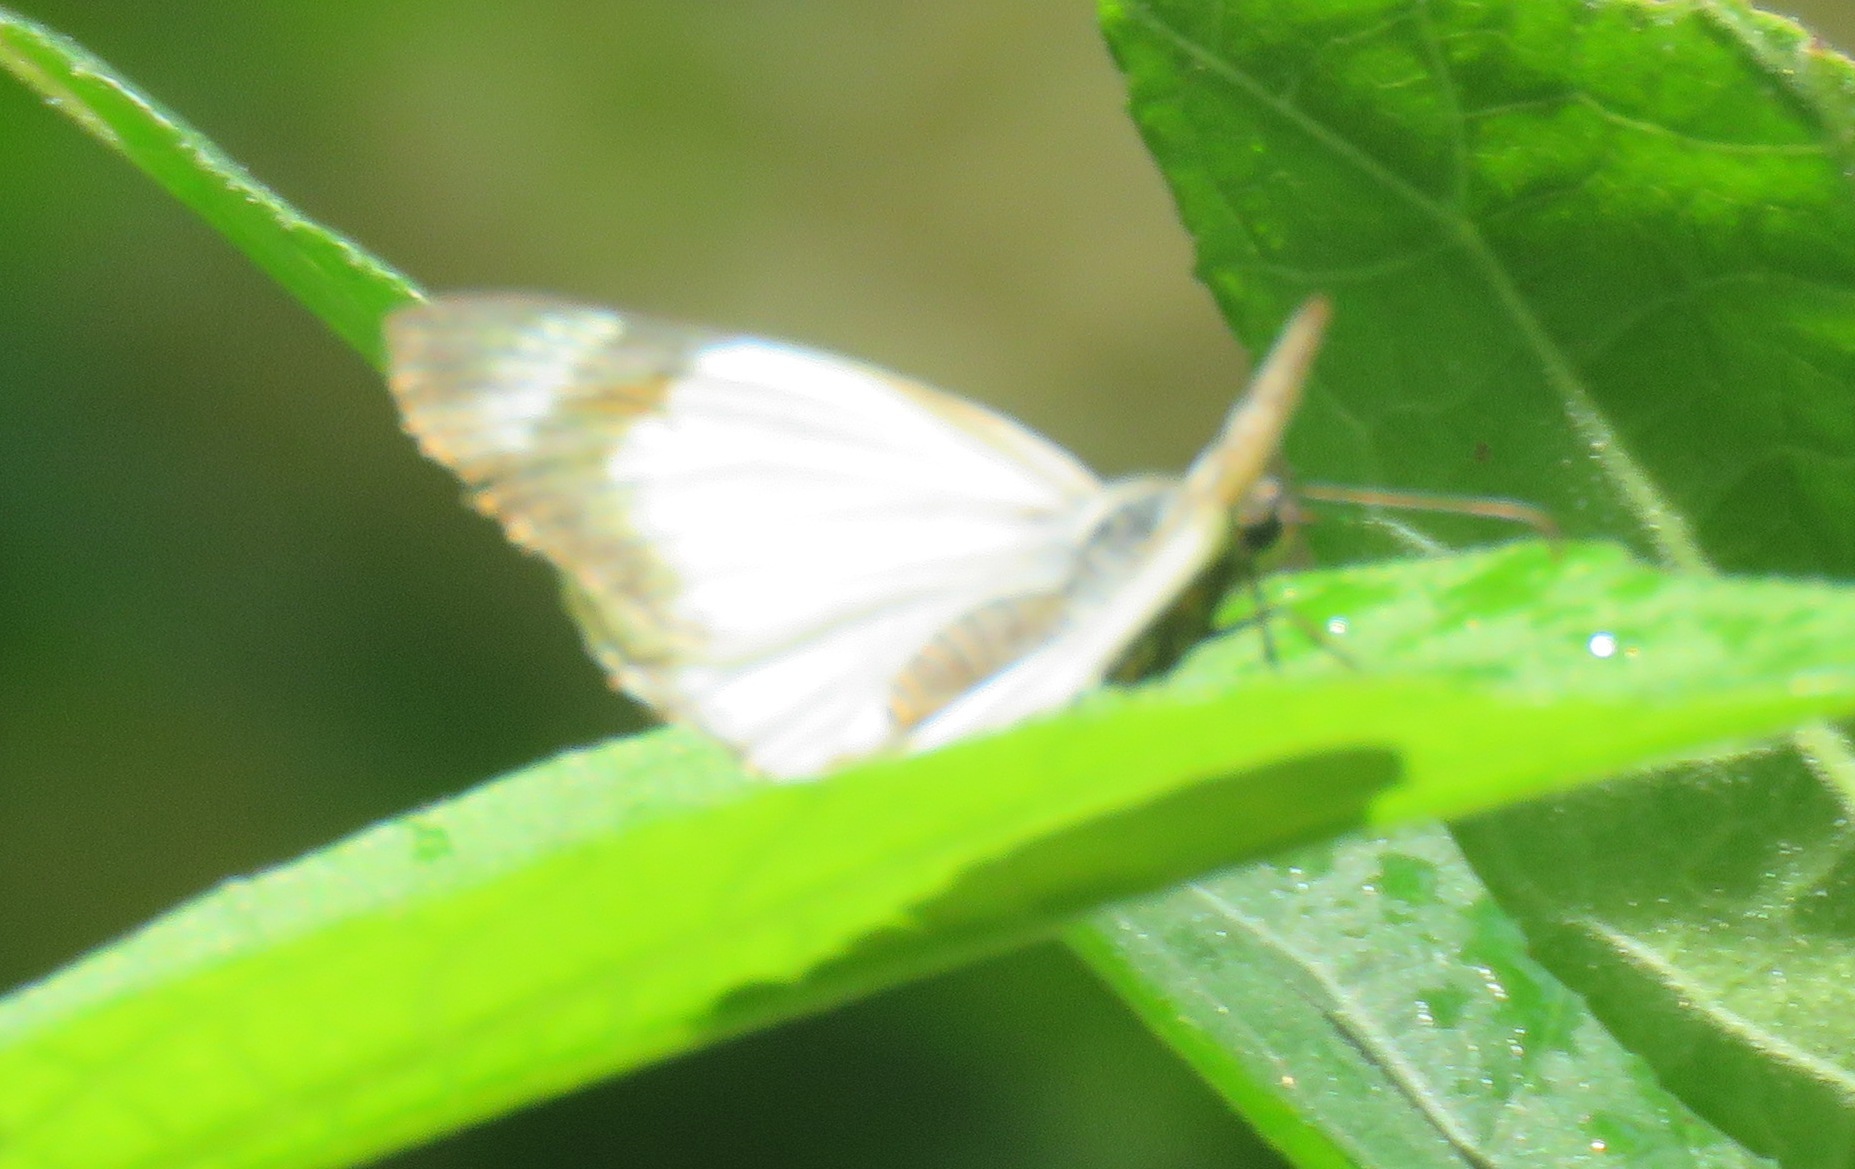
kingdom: Animalia
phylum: Arthropoda
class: Insecta
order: Lepidoptera
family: Hesperiidae
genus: Heliopetes
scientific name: Heliopetes alana
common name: Alana white-skipper
